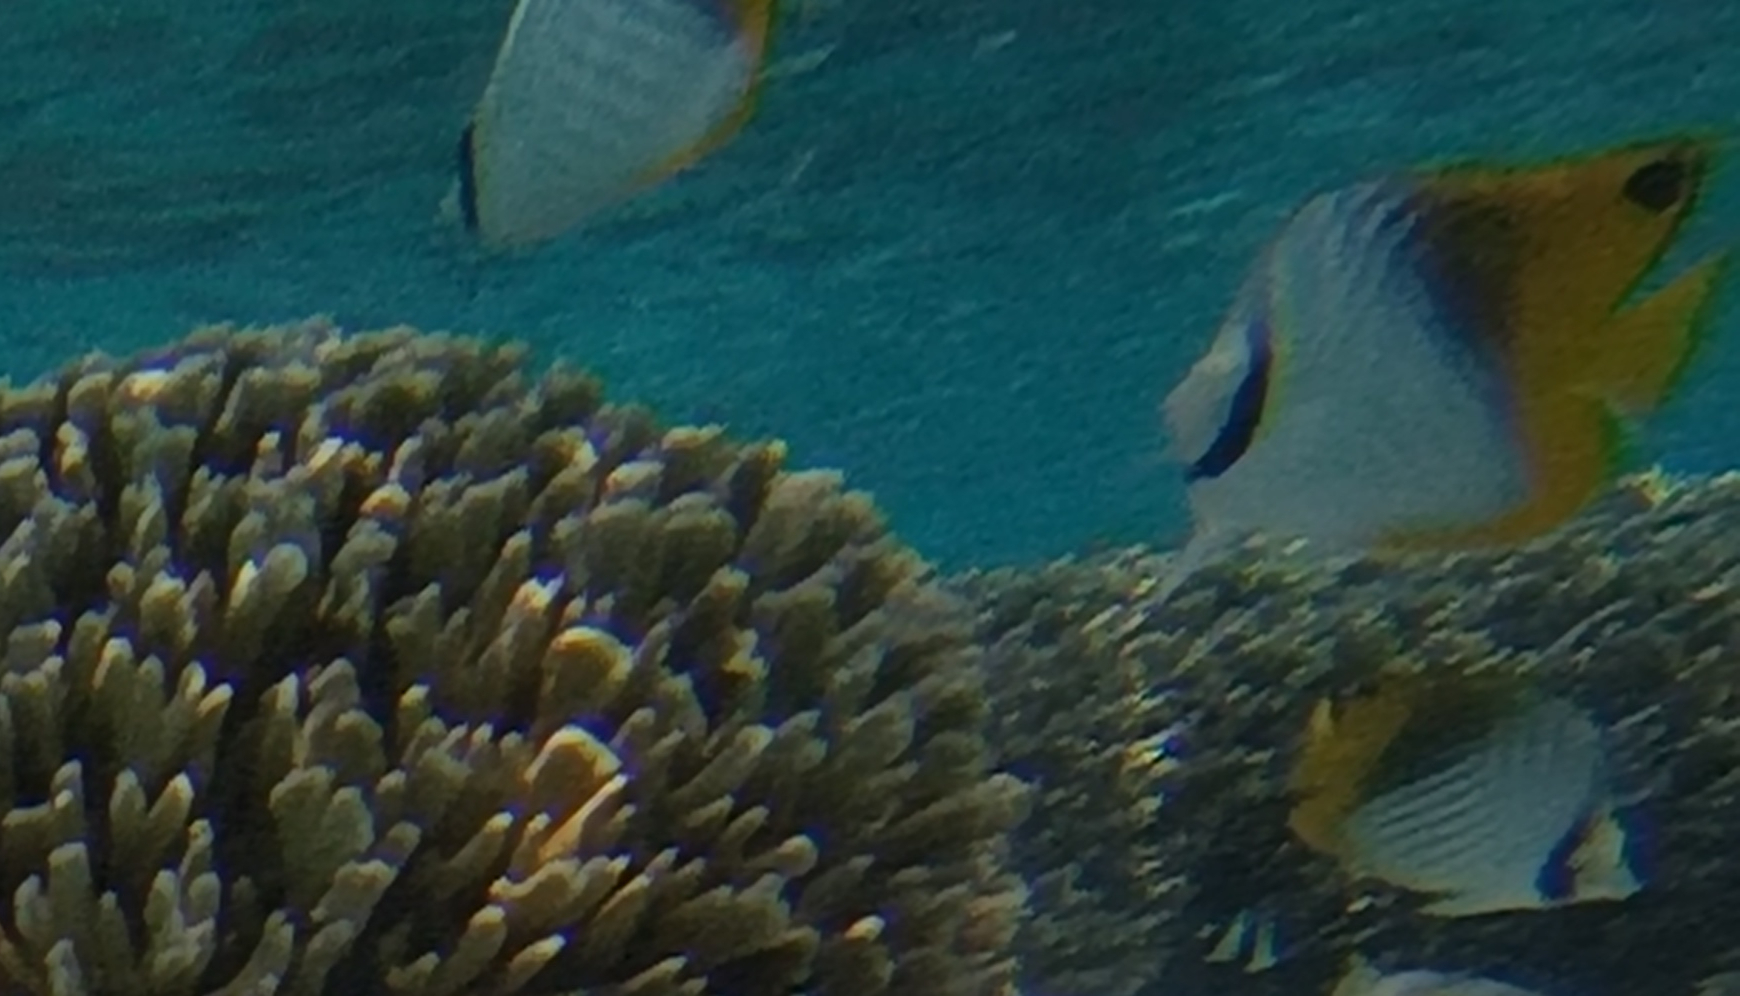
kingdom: Animalia
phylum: Chordata
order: Perciformes
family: Chaetodontidae
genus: Chaetodon
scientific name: Chaetodon auriga
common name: Threadfin butterflyfish
